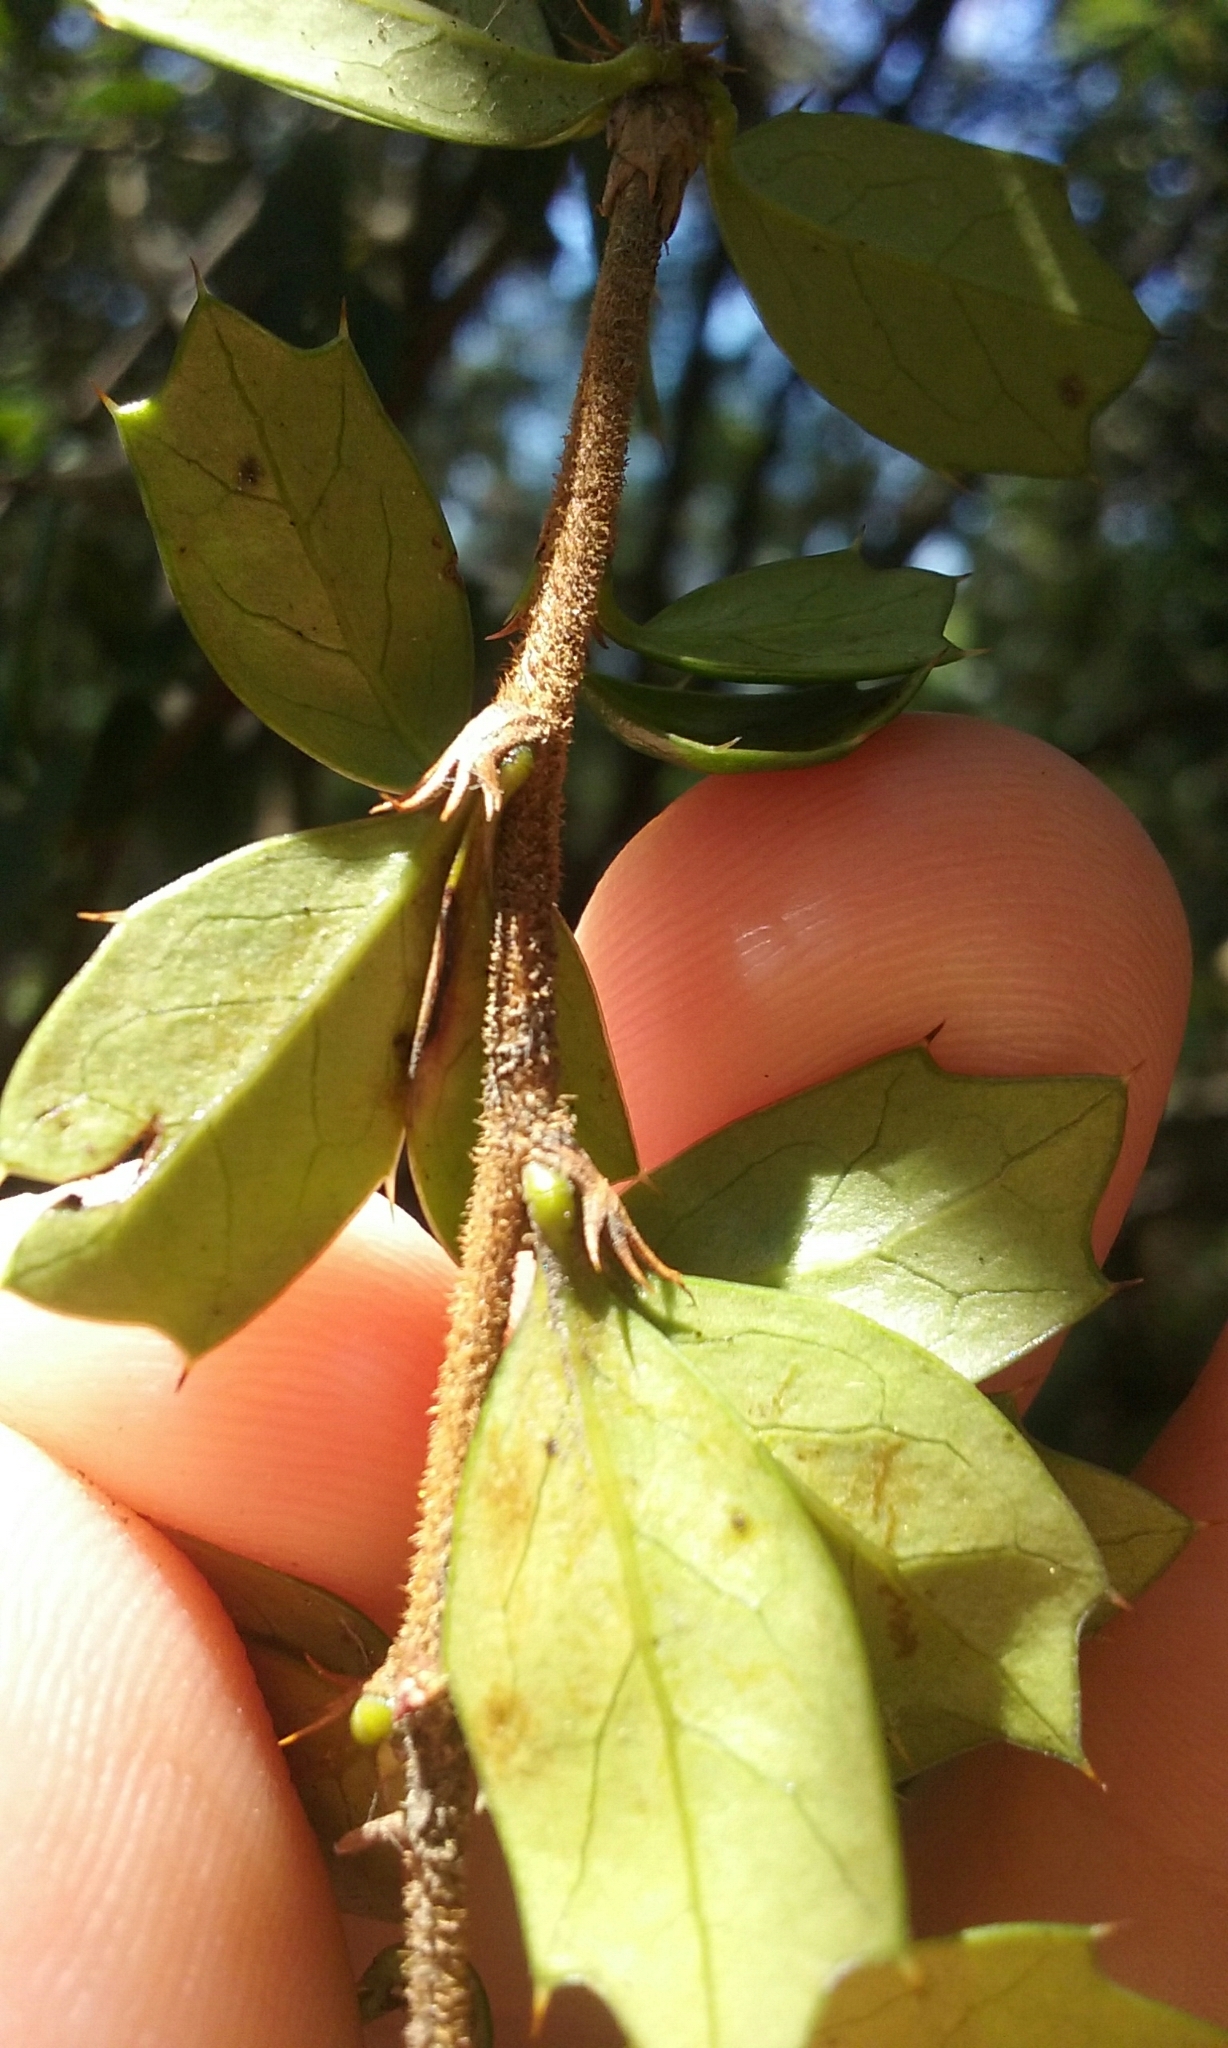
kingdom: Plantae
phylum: Tracheophyta
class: Magnoliopsida
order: Ranunculales
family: Berberidaceae
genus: Berberis
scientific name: Berberis darwinii
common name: Darwin's barberry
